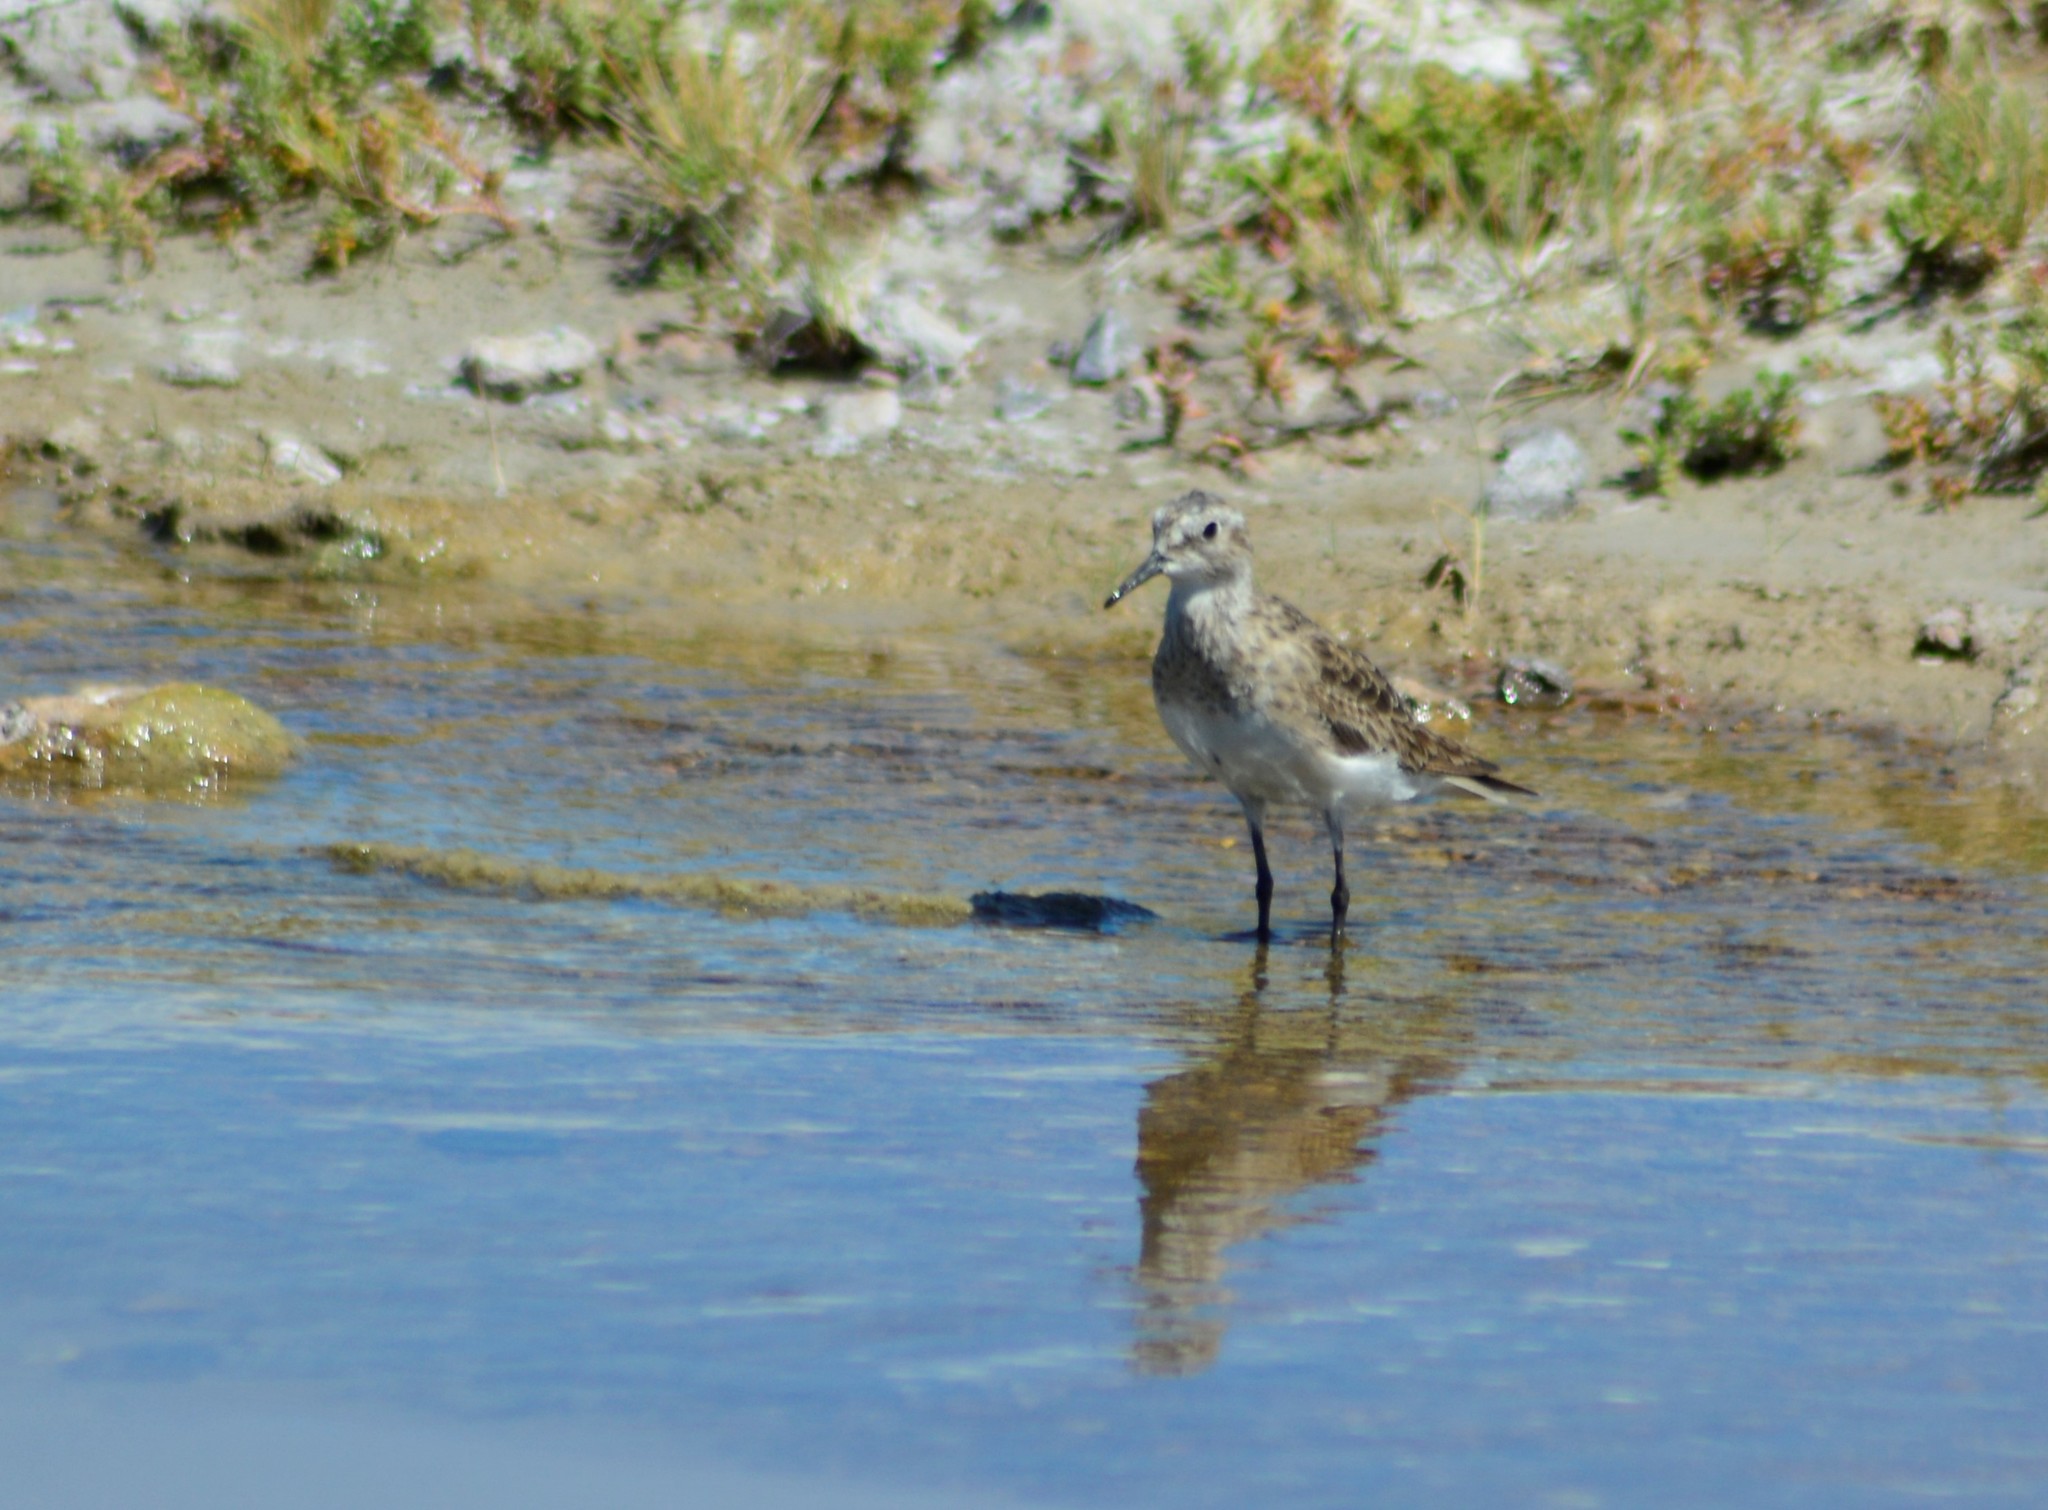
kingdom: Animalia
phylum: Chordata
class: Aves
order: Charadriiformes
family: Scolopacidae
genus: Calidris
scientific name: Calidris bairdii
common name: Baird's sandpiper
